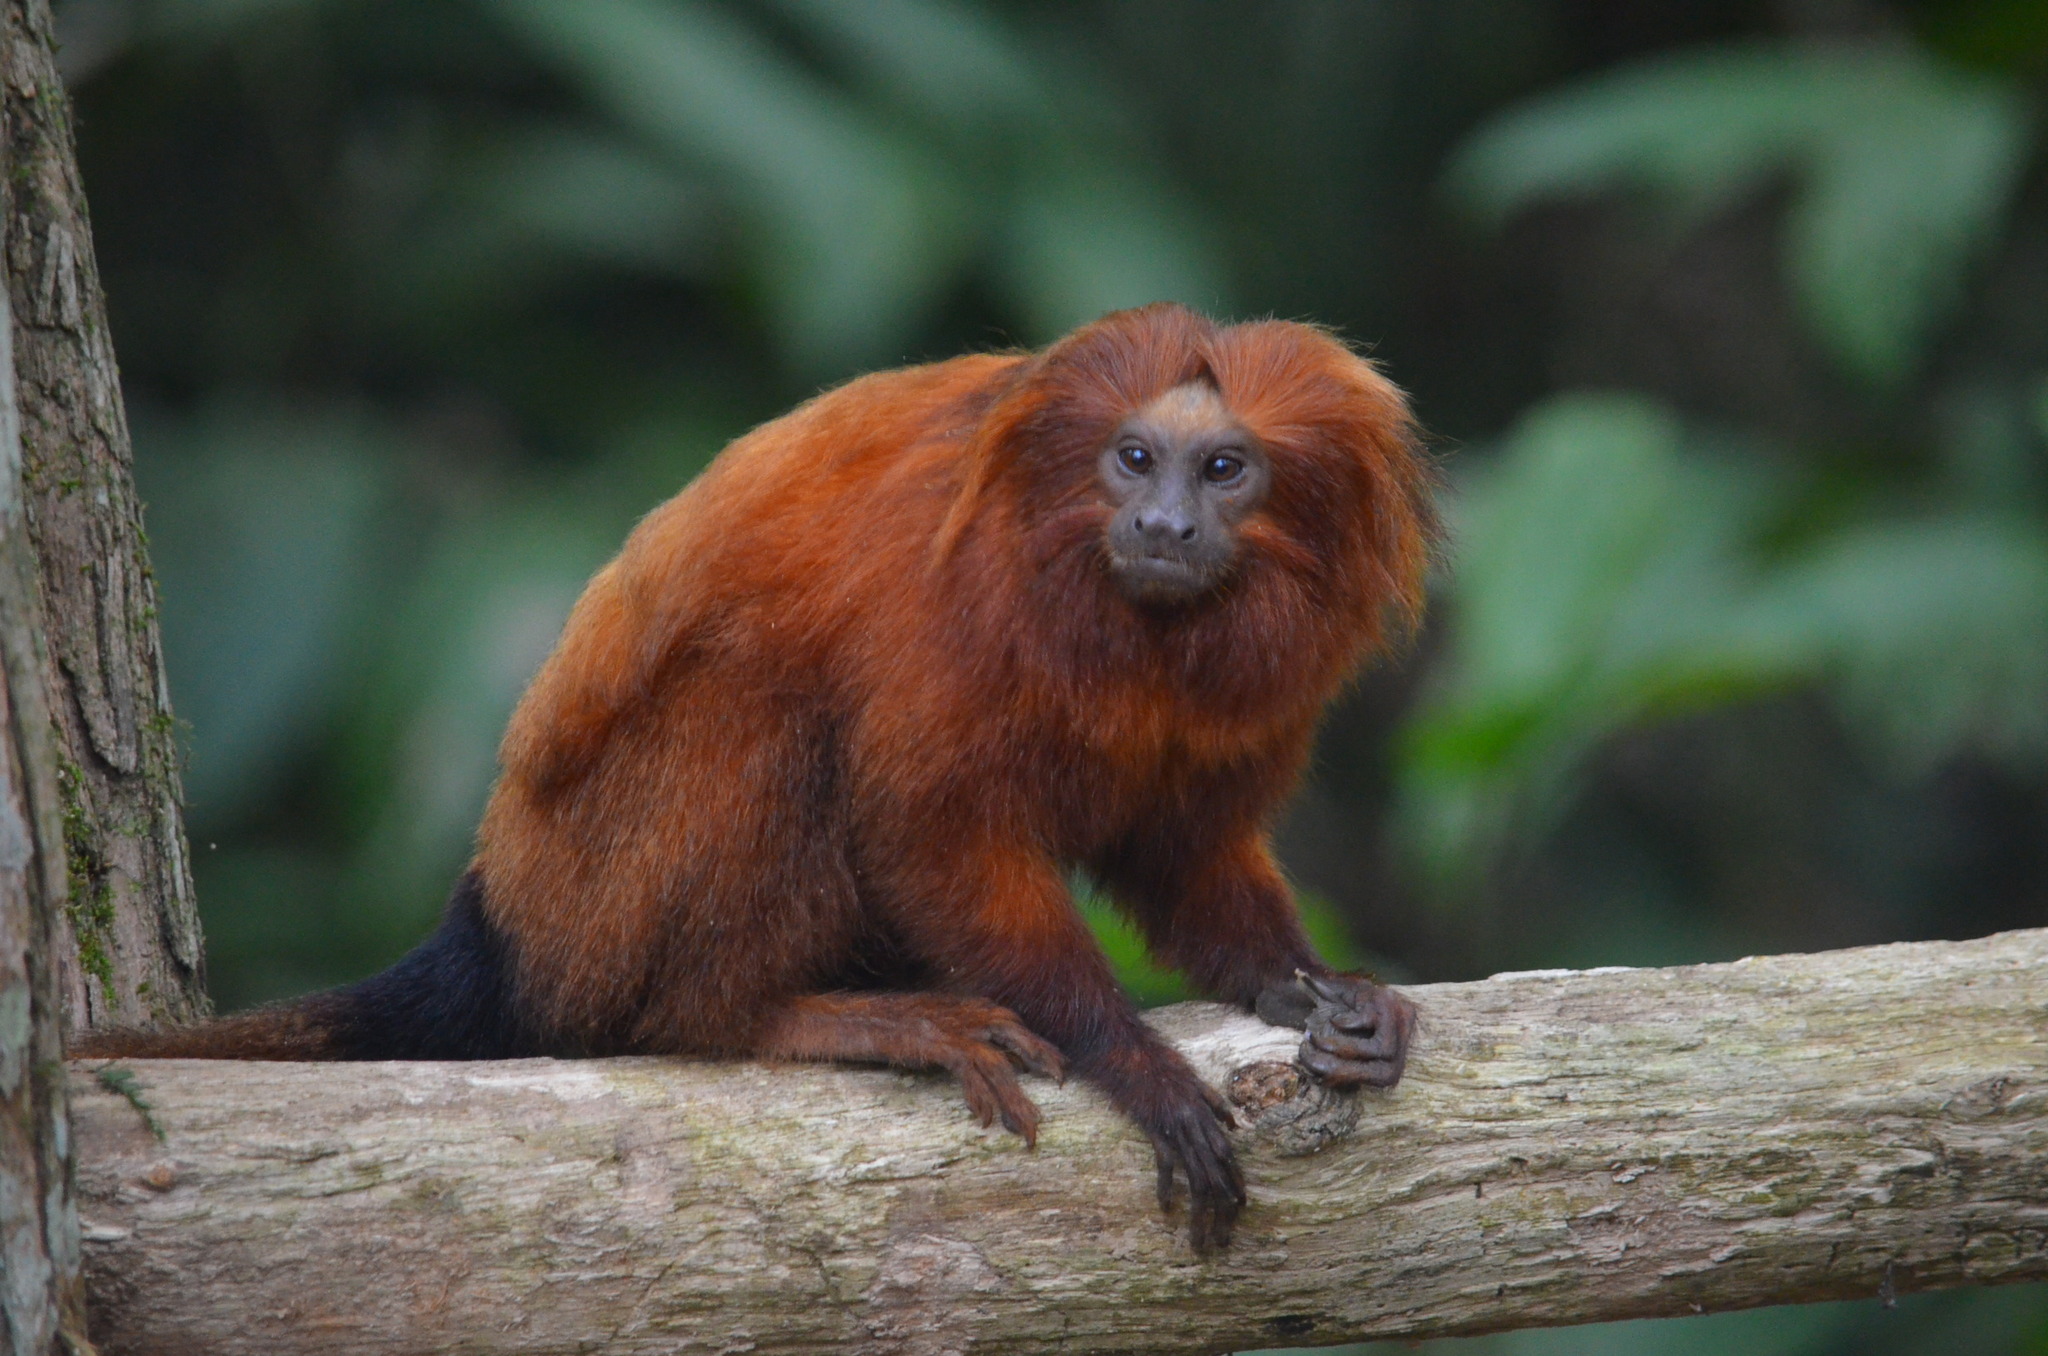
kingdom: Animalia
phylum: Chordata
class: Mammalia
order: Primates
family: Callitrichidae
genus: Leontopithecus
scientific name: Leontopithecus rosalia
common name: Golden lion tamarin
